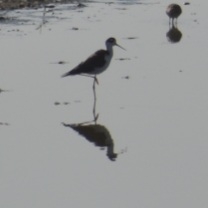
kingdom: Animalia
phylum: Chordata
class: Aves
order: Charadriiformes
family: Recurvirostridae
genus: Himantopus
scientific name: Himantopus mexicanus
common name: Black-necked stilt
